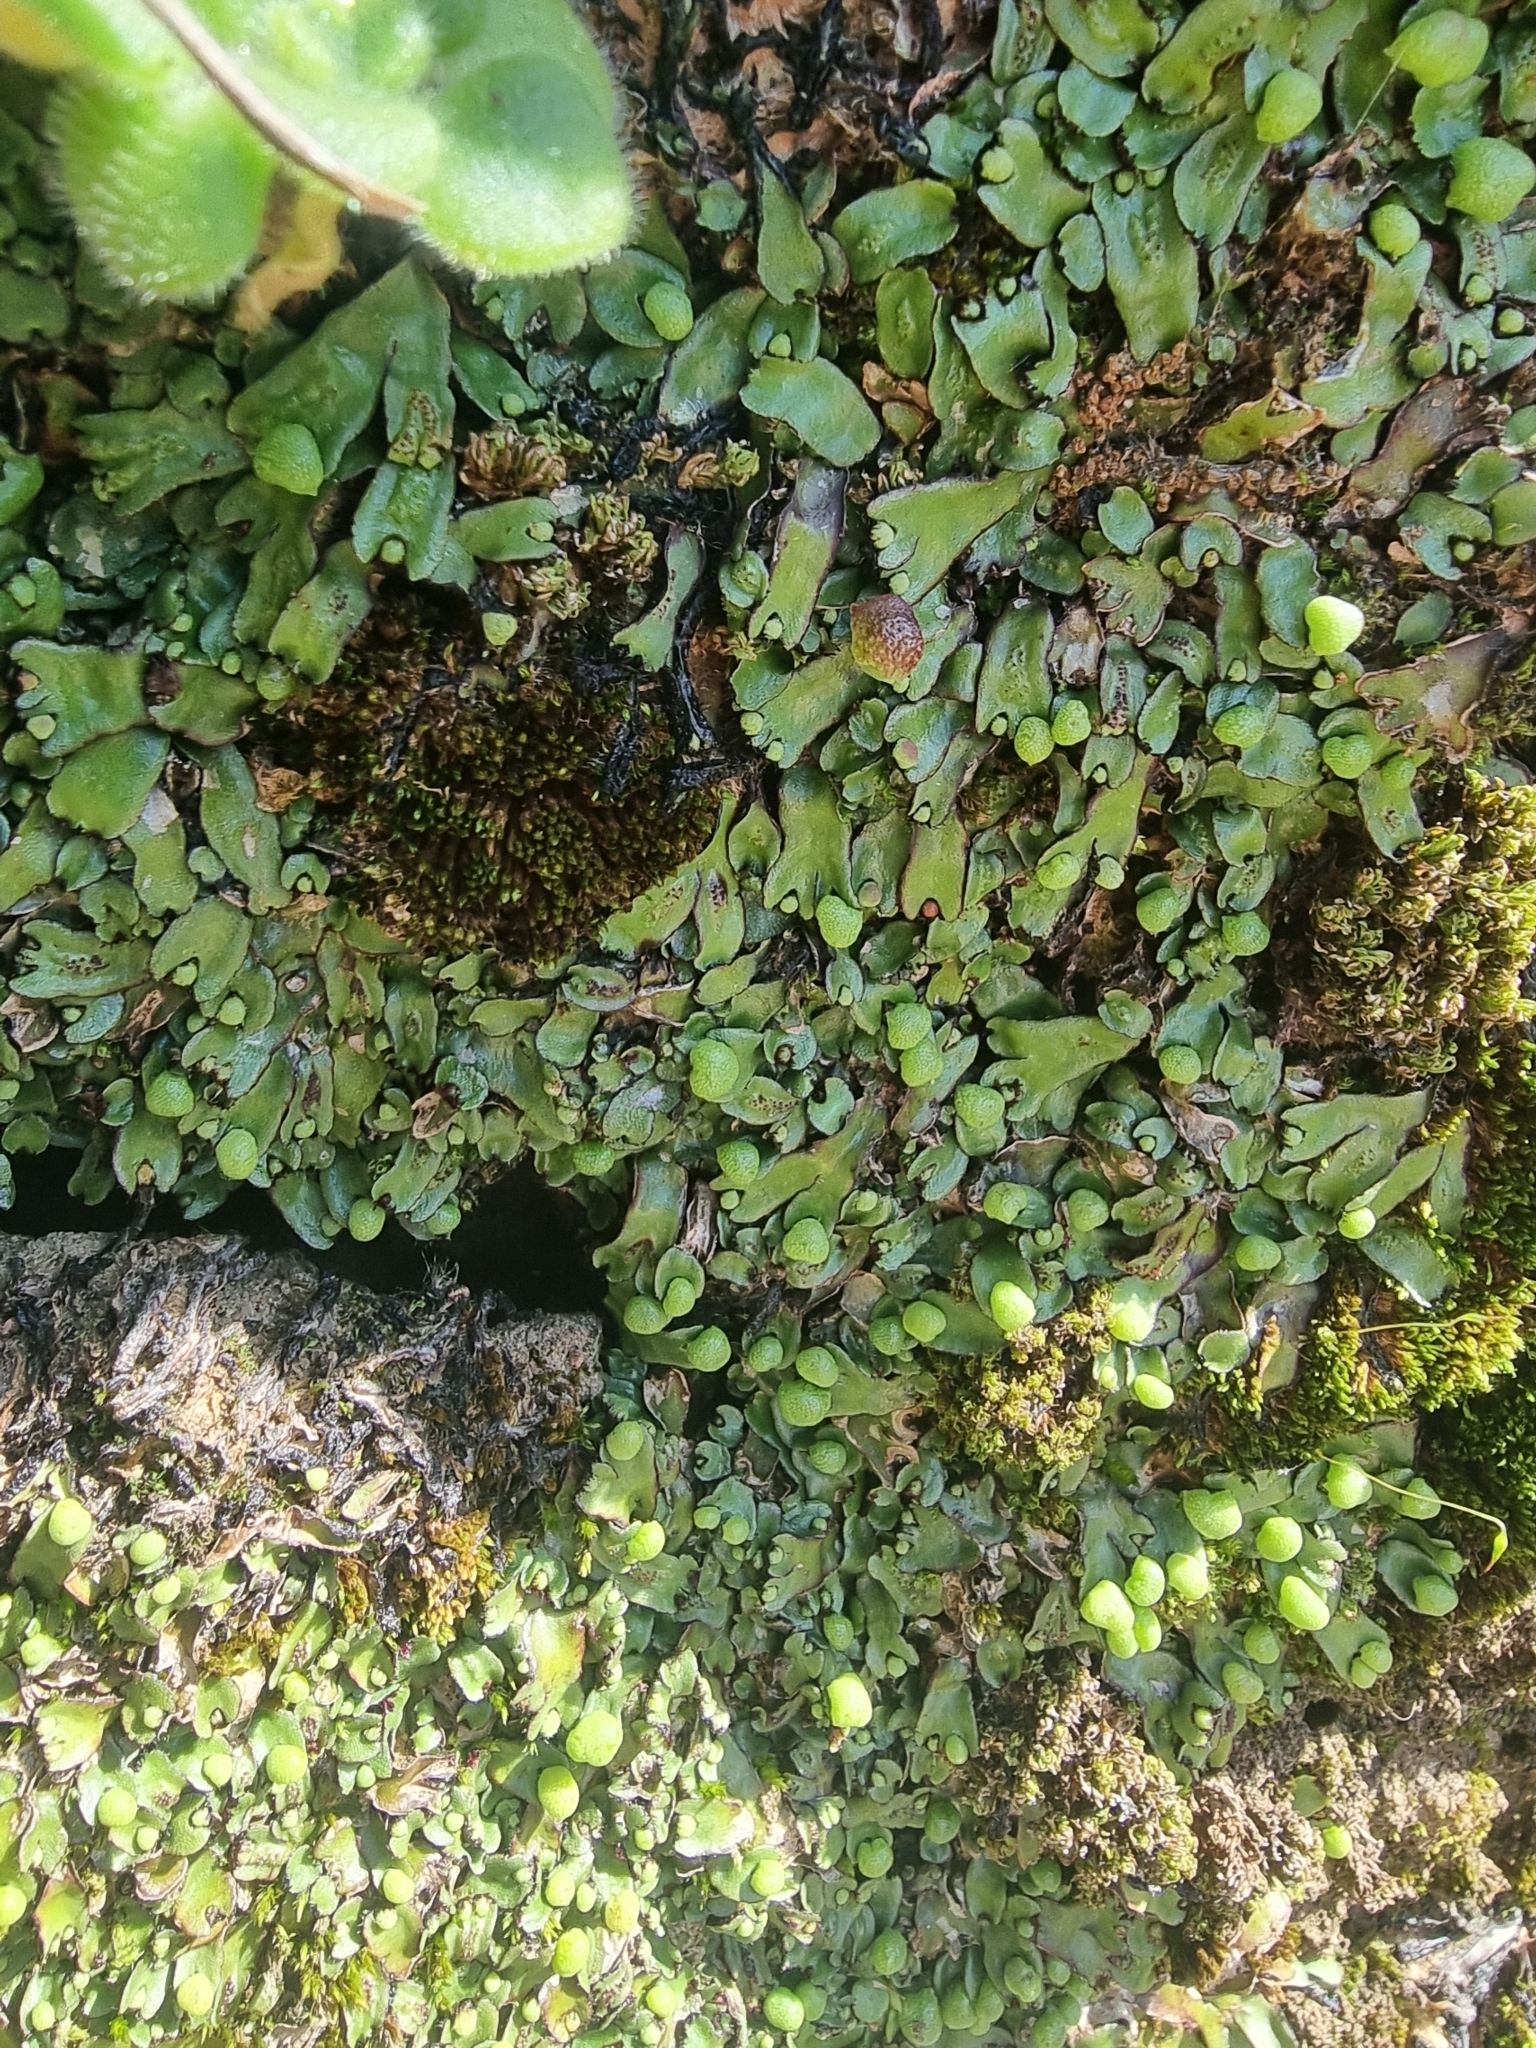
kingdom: Plantae
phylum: Marchantiophyta
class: Marchantiopsida
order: Marchantiales
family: Aytoniaceae
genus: Mannia
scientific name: Mannia androgyna
